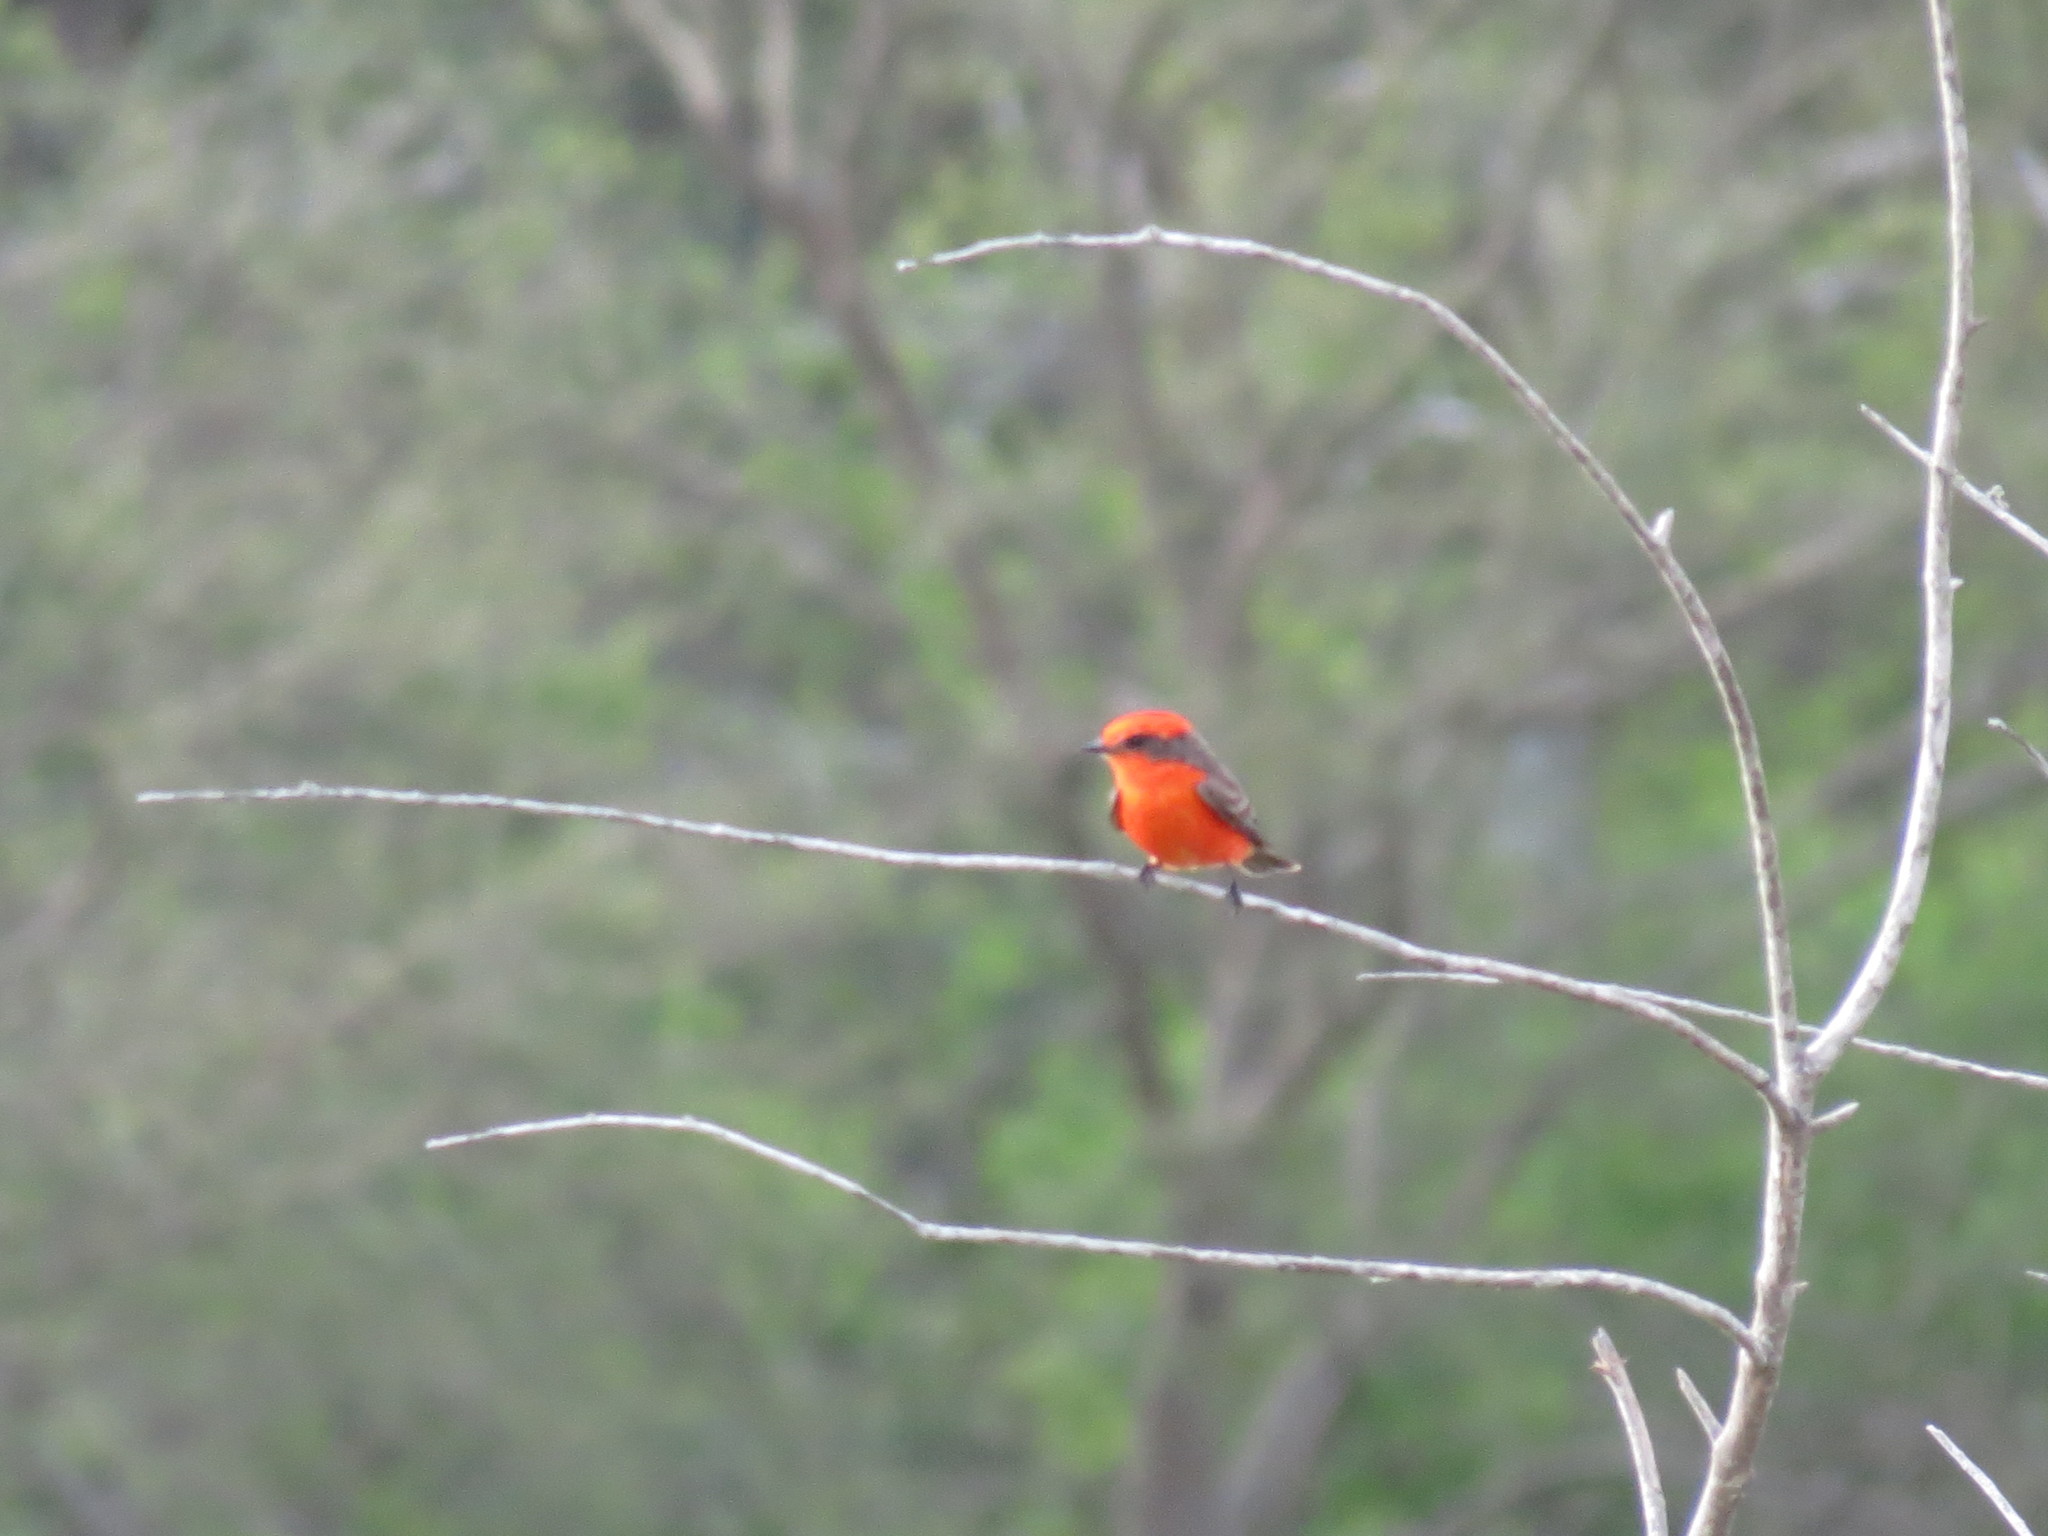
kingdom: Animalia
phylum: Chordata
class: Aves
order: Passeriformes
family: Tyrannidae
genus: Pyrocephalus
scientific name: Pyrocephalus rubinus
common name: Vermilion flycatcher
